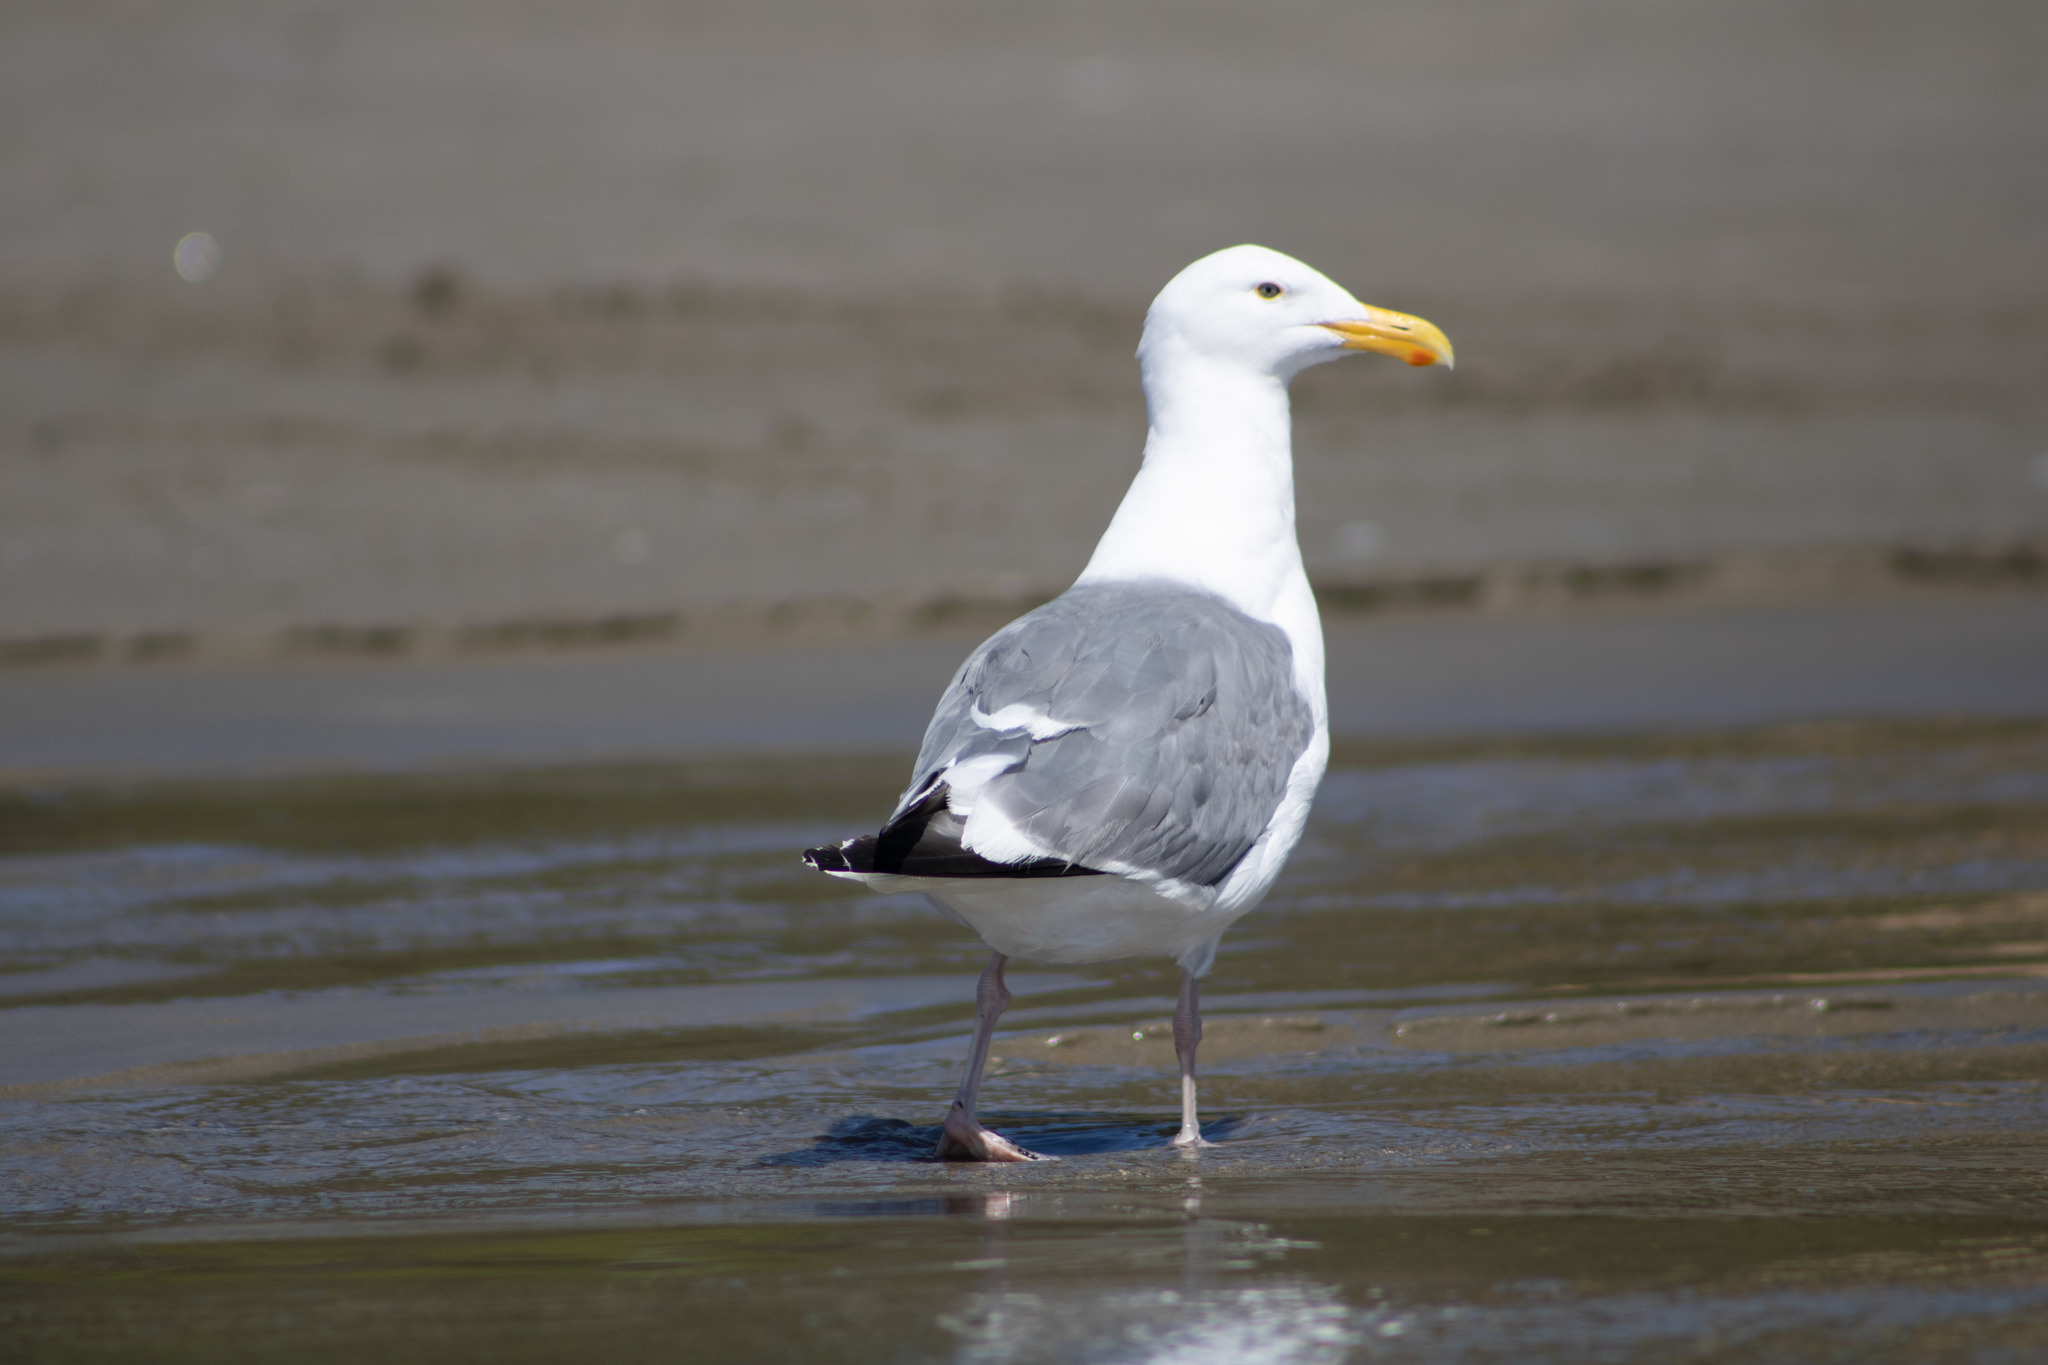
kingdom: Animalia
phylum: Chordata
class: Aves
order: Charadriiformes
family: Laridae
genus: Larus
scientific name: Larus occidentalis
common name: Western gull
